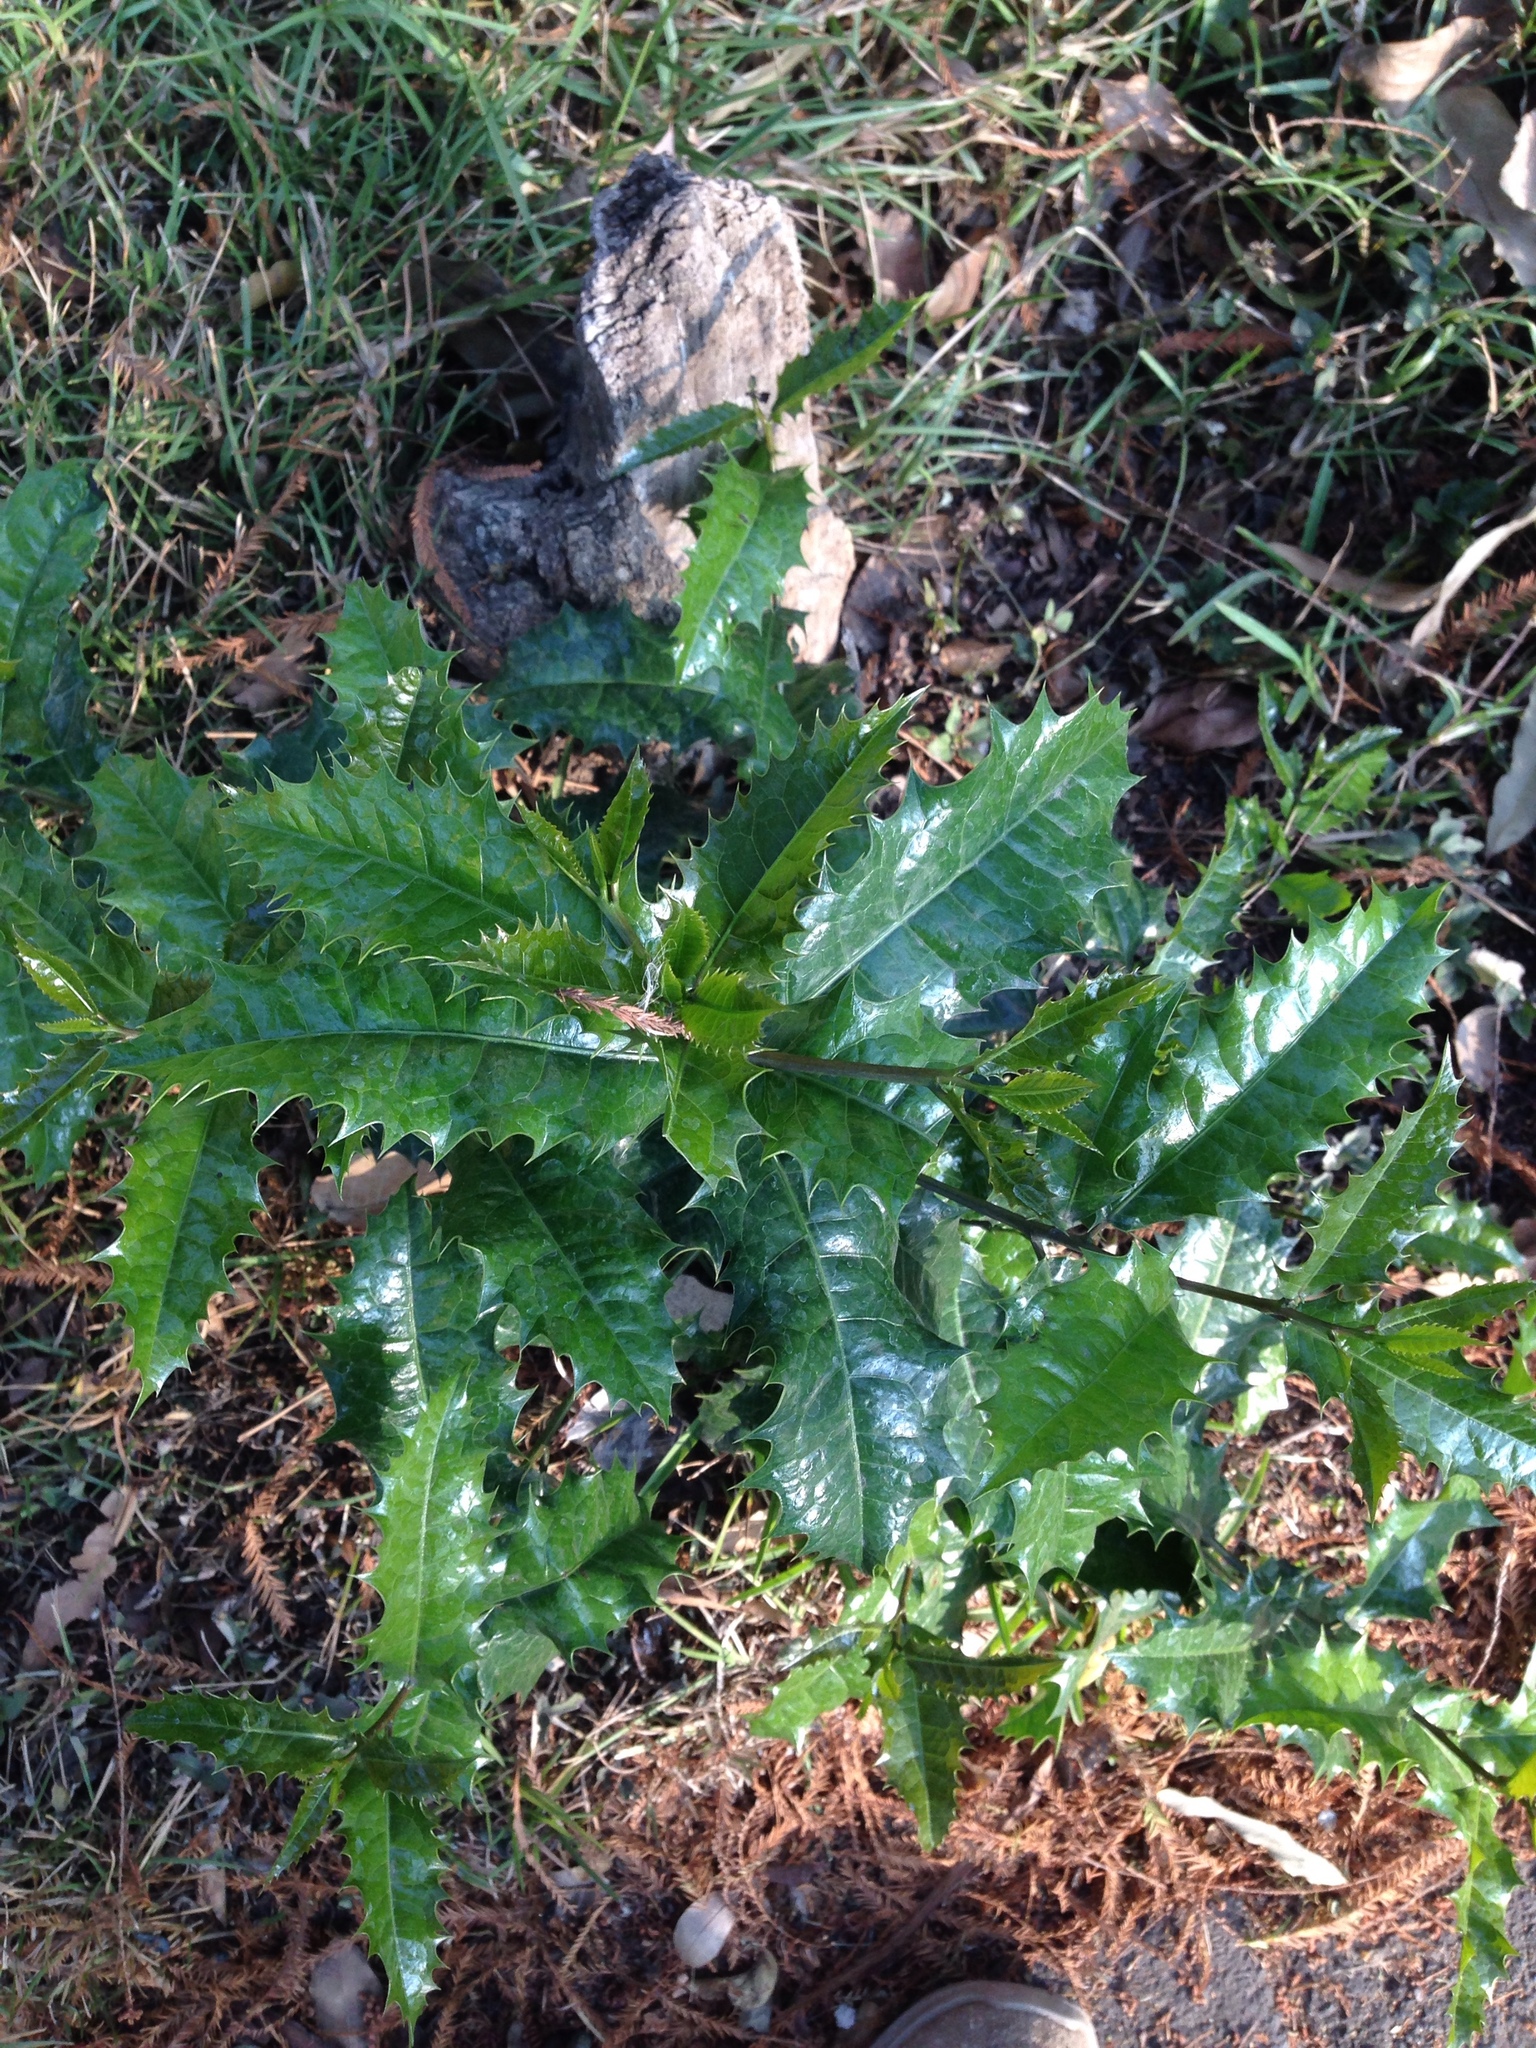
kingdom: Plantae
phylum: Tracheophyta
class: Magnoliopsida
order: Malpighiales
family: Salicaceae
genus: Olmediella
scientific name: Olmediella betschleriana
